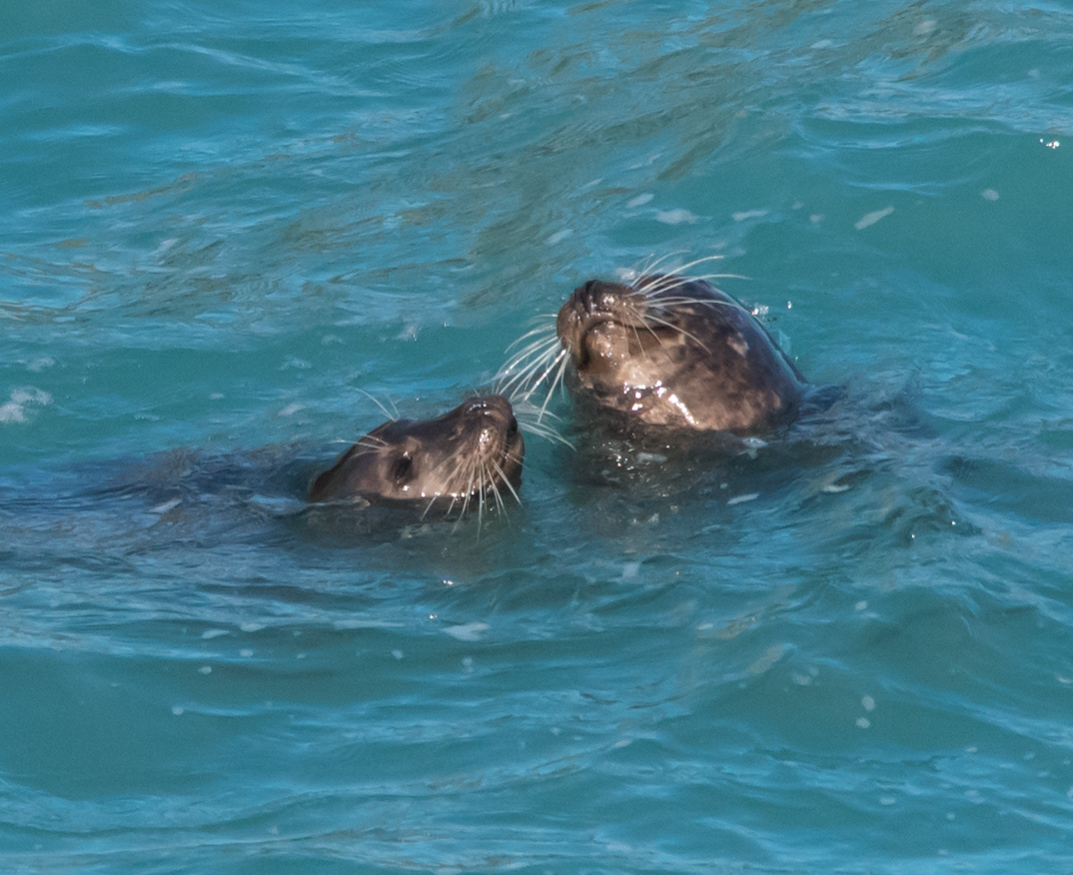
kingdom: Animalia
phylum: Chordata
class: Mammalia
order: Carnivora
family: Phocidae
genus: Phoca
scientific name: Phoca vitulina
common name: Harbor seal
